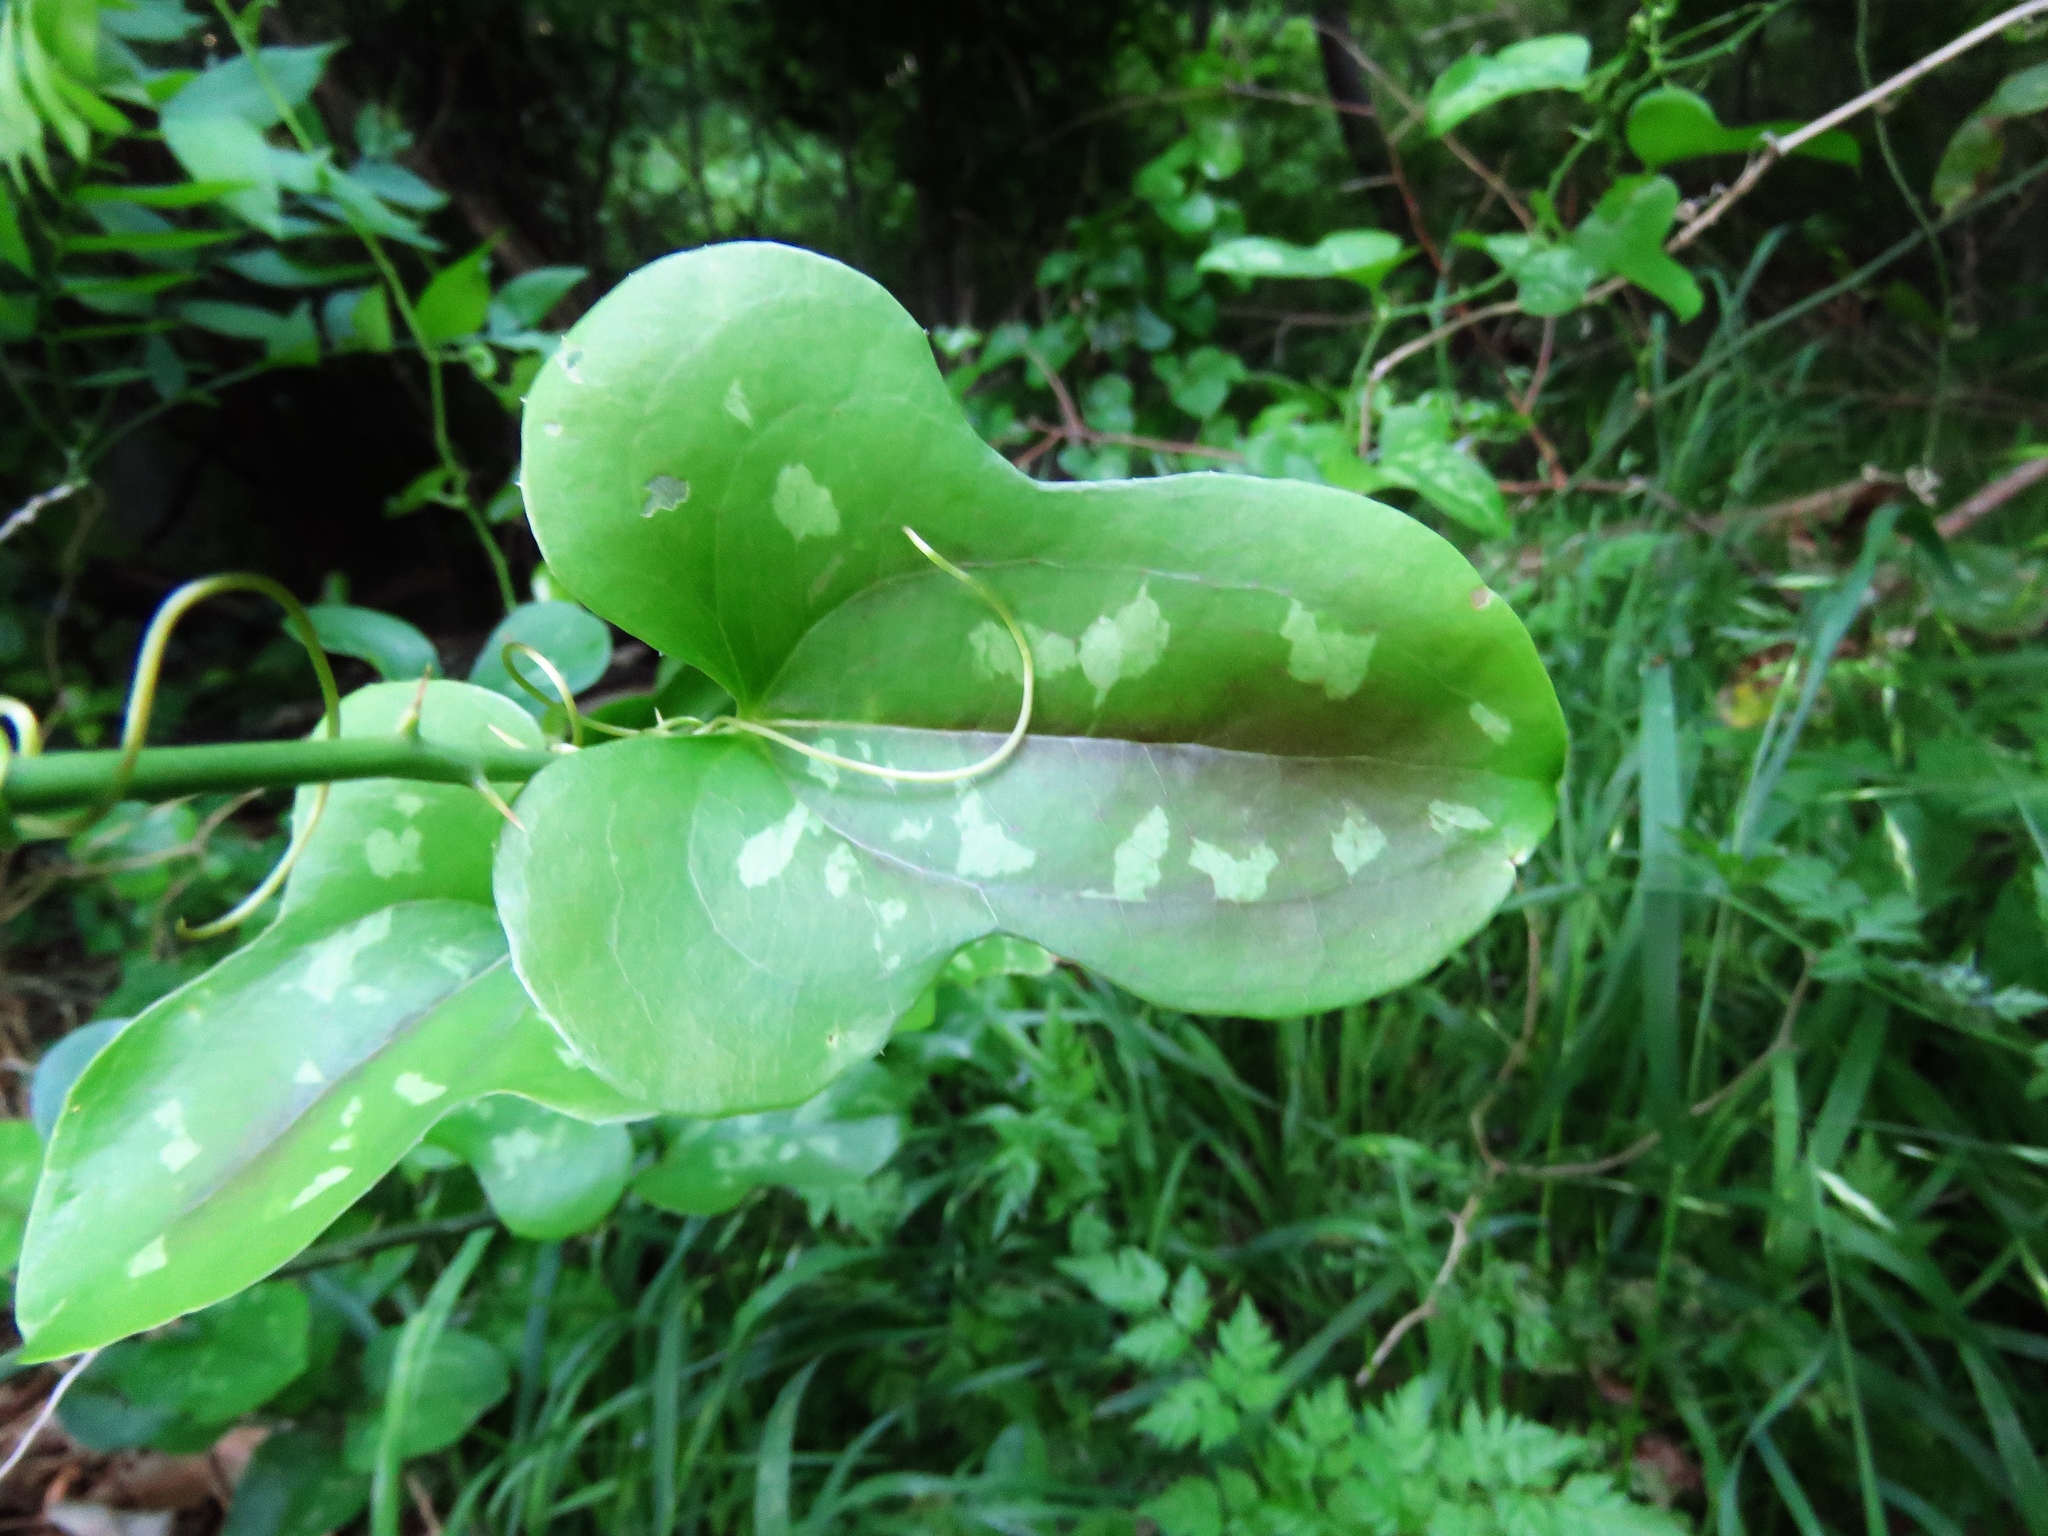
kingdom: Plantae
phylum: Tracheophyta
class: Liliopsida
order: Liliales
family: Smilacaceae
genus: Smilax
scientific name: Smilax bona-nox
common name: Catbrier
